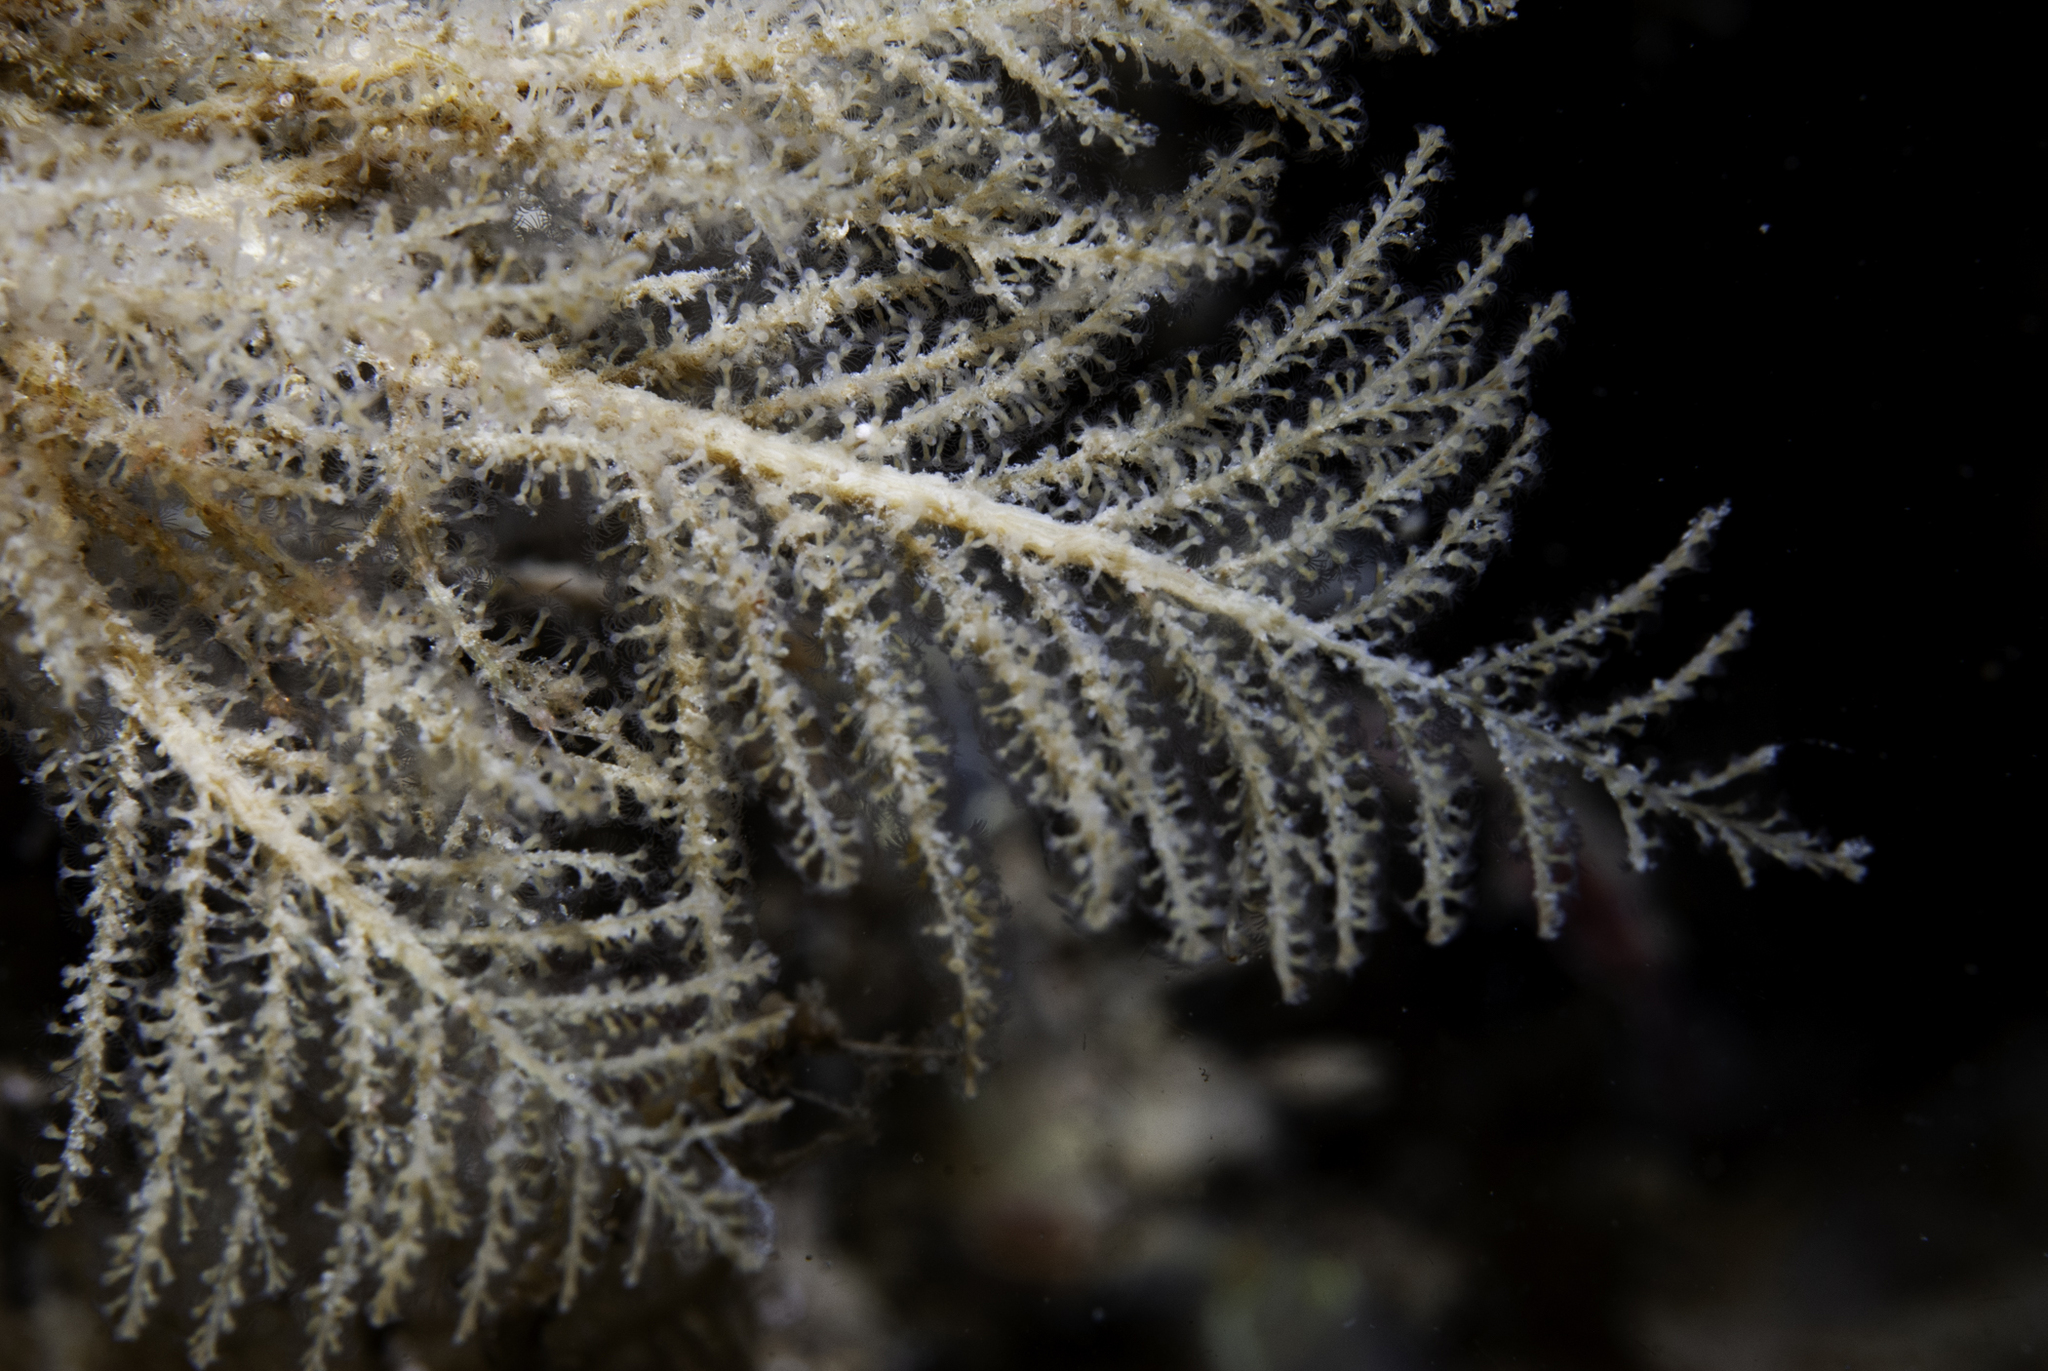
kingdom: Animalia
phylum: Cnidaria
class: Hydrozoa
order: Leptothecata
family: Haleciidae
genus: Halecium
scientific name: Halecium halecinum
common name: Herringbone hydroid
